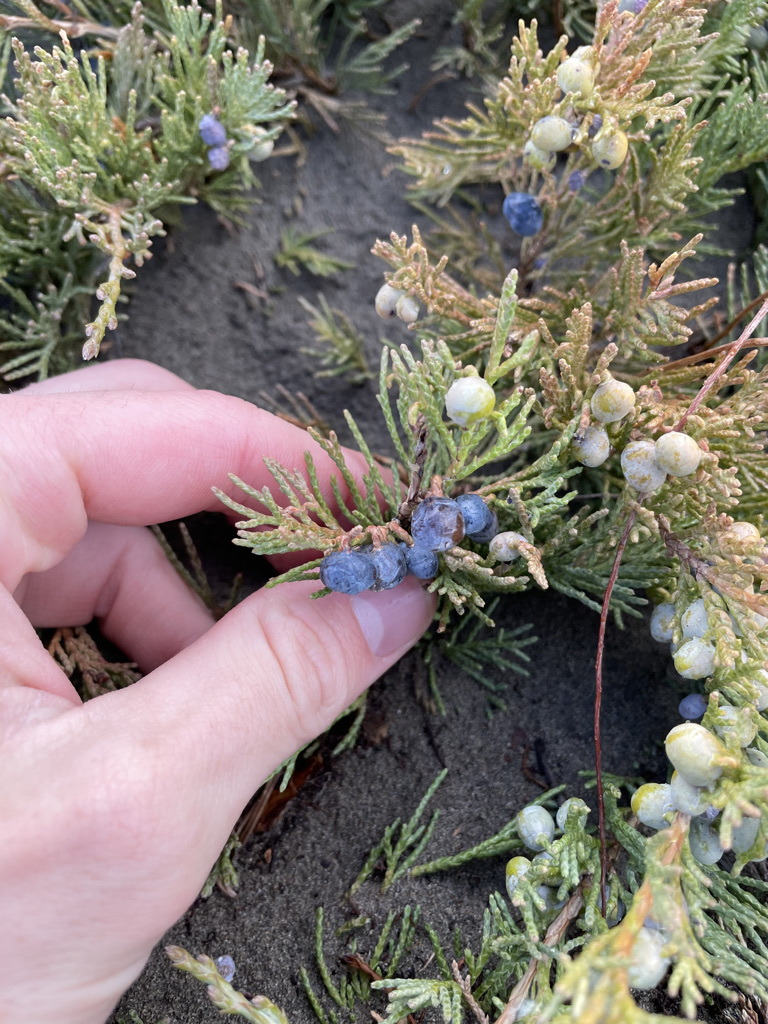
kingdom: Plantae
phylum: Tracheophyta
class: Pinopsida
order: Pinales
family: Cupressaceae
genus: Juniperus
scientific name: Juniperus horizontalis
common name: Creeping juniper
